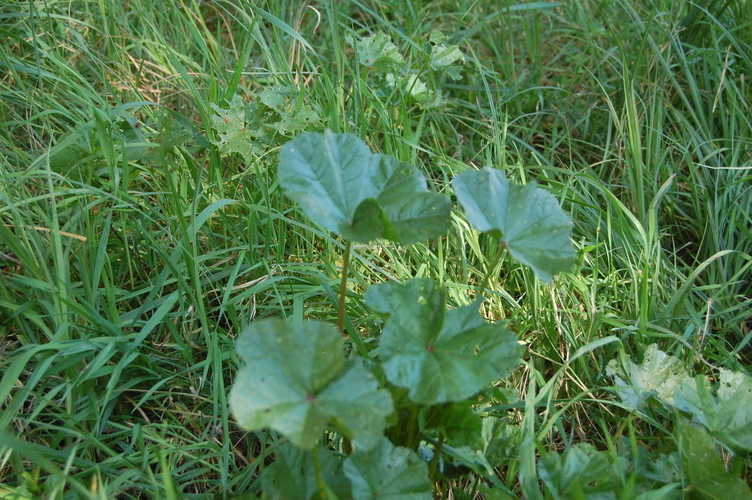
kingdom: Plantae
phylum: Tracheophyta
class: Magnoliopsida
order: Malvales
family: Malvaceae
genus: Malva
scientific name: Malva sylvestris
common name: Common mallow
